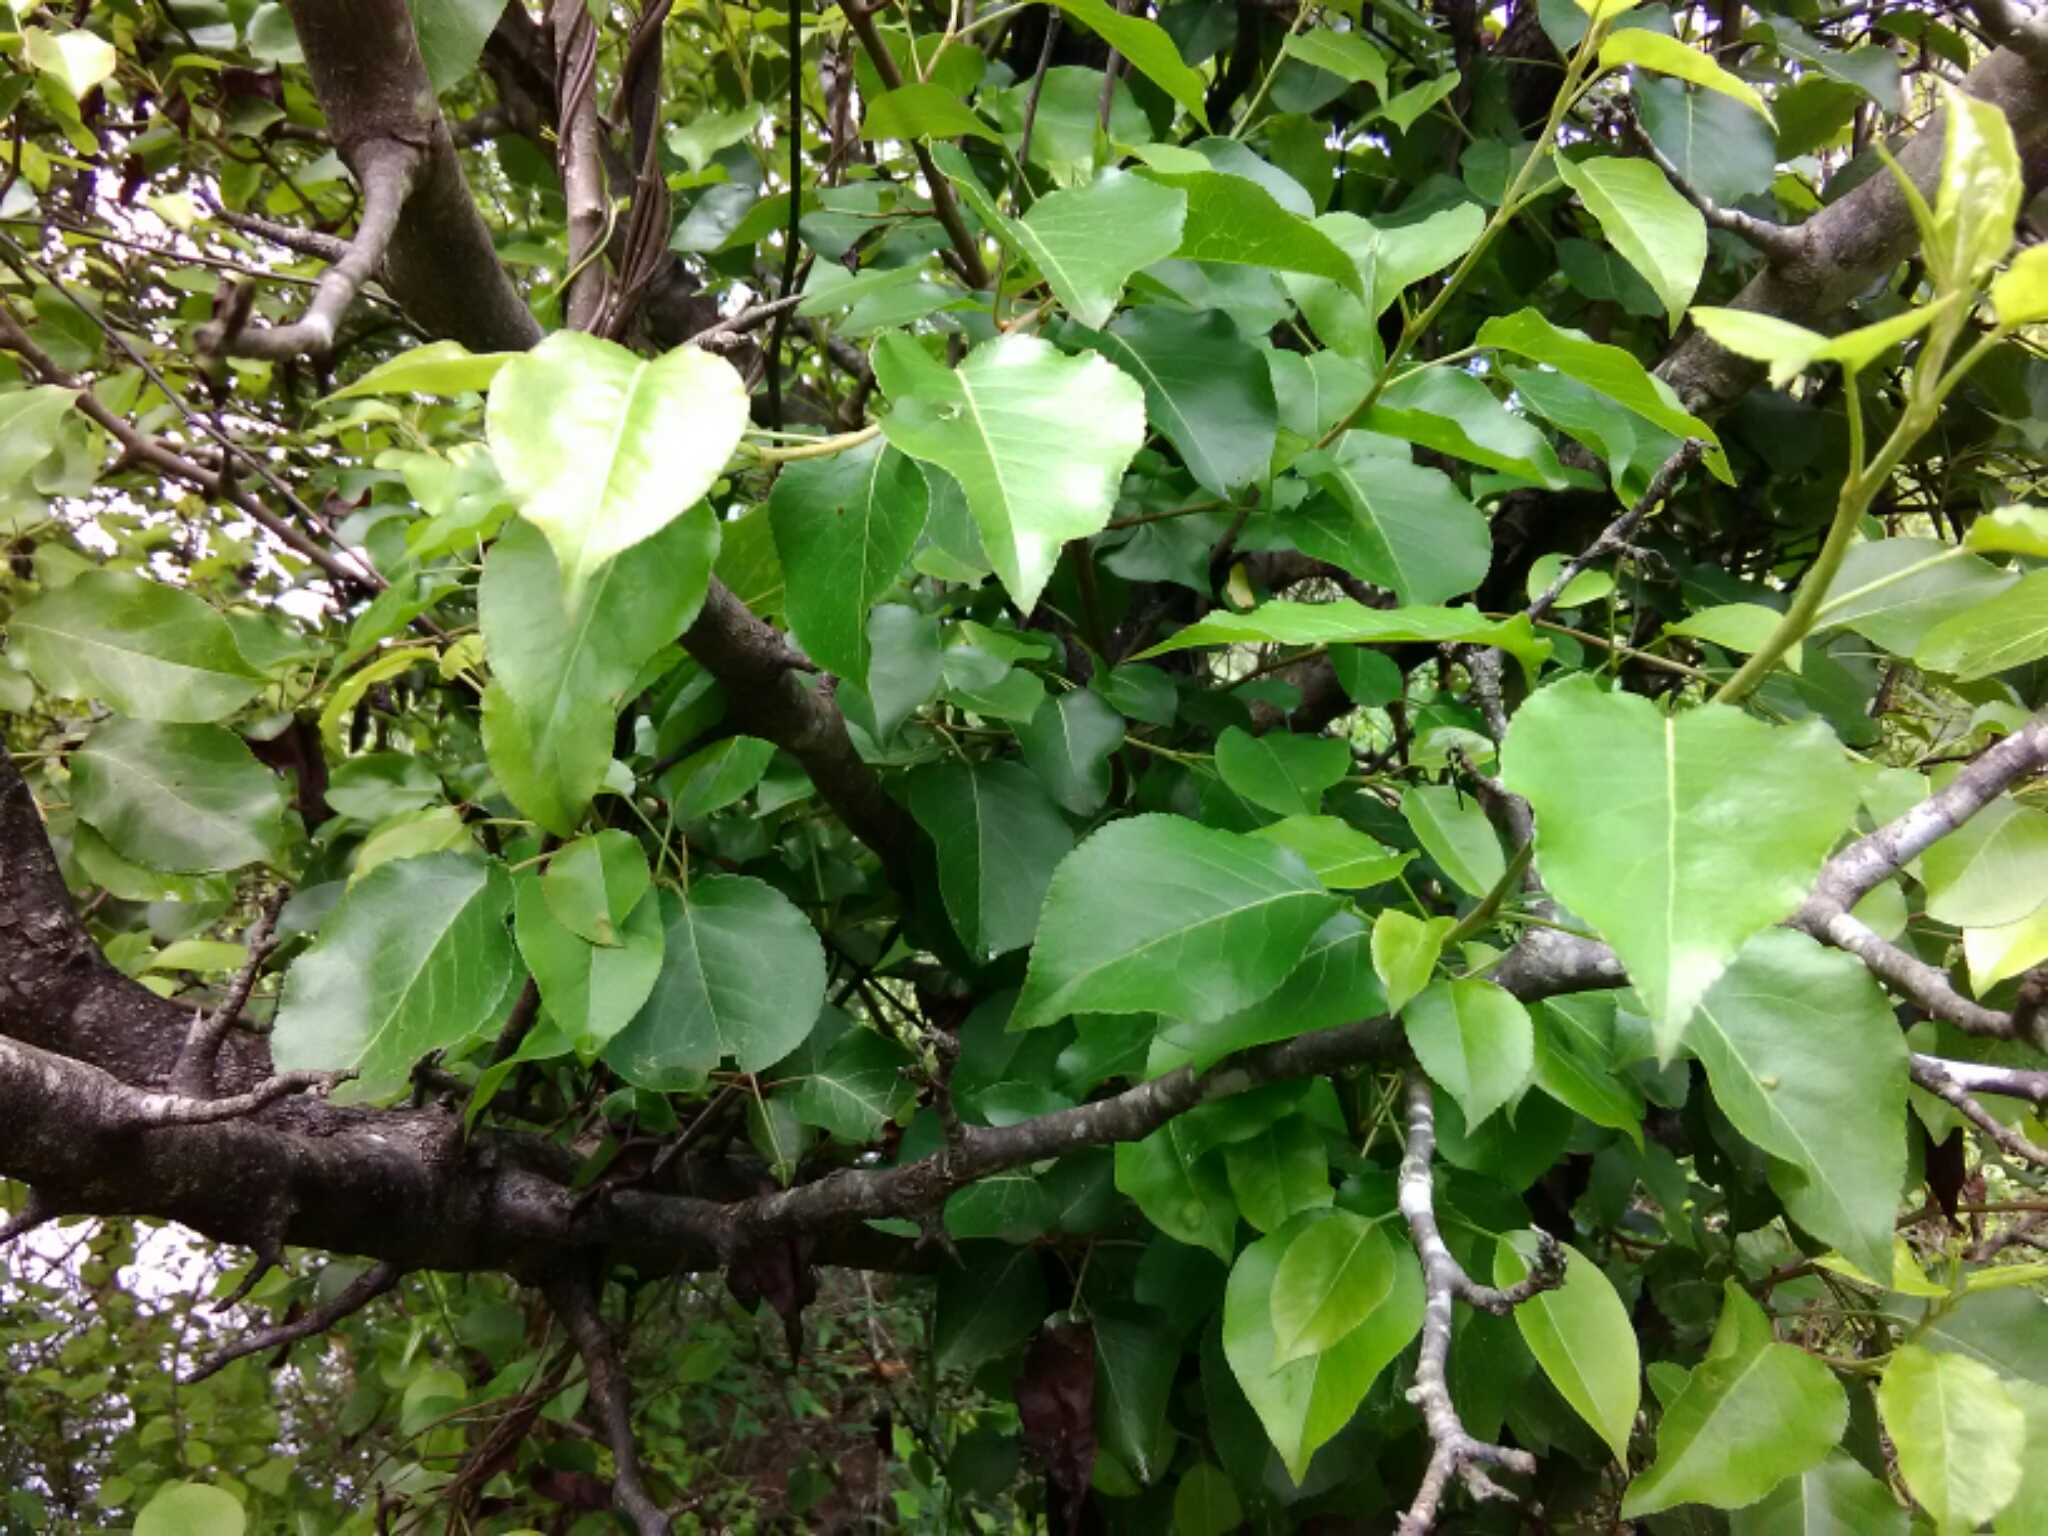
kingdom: Plantae
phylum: Tracheophyta
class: Magnoliopsida
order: Rosales
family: Rosaceae
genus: Prunus
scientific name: Prunus serotina
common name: Black cherry
